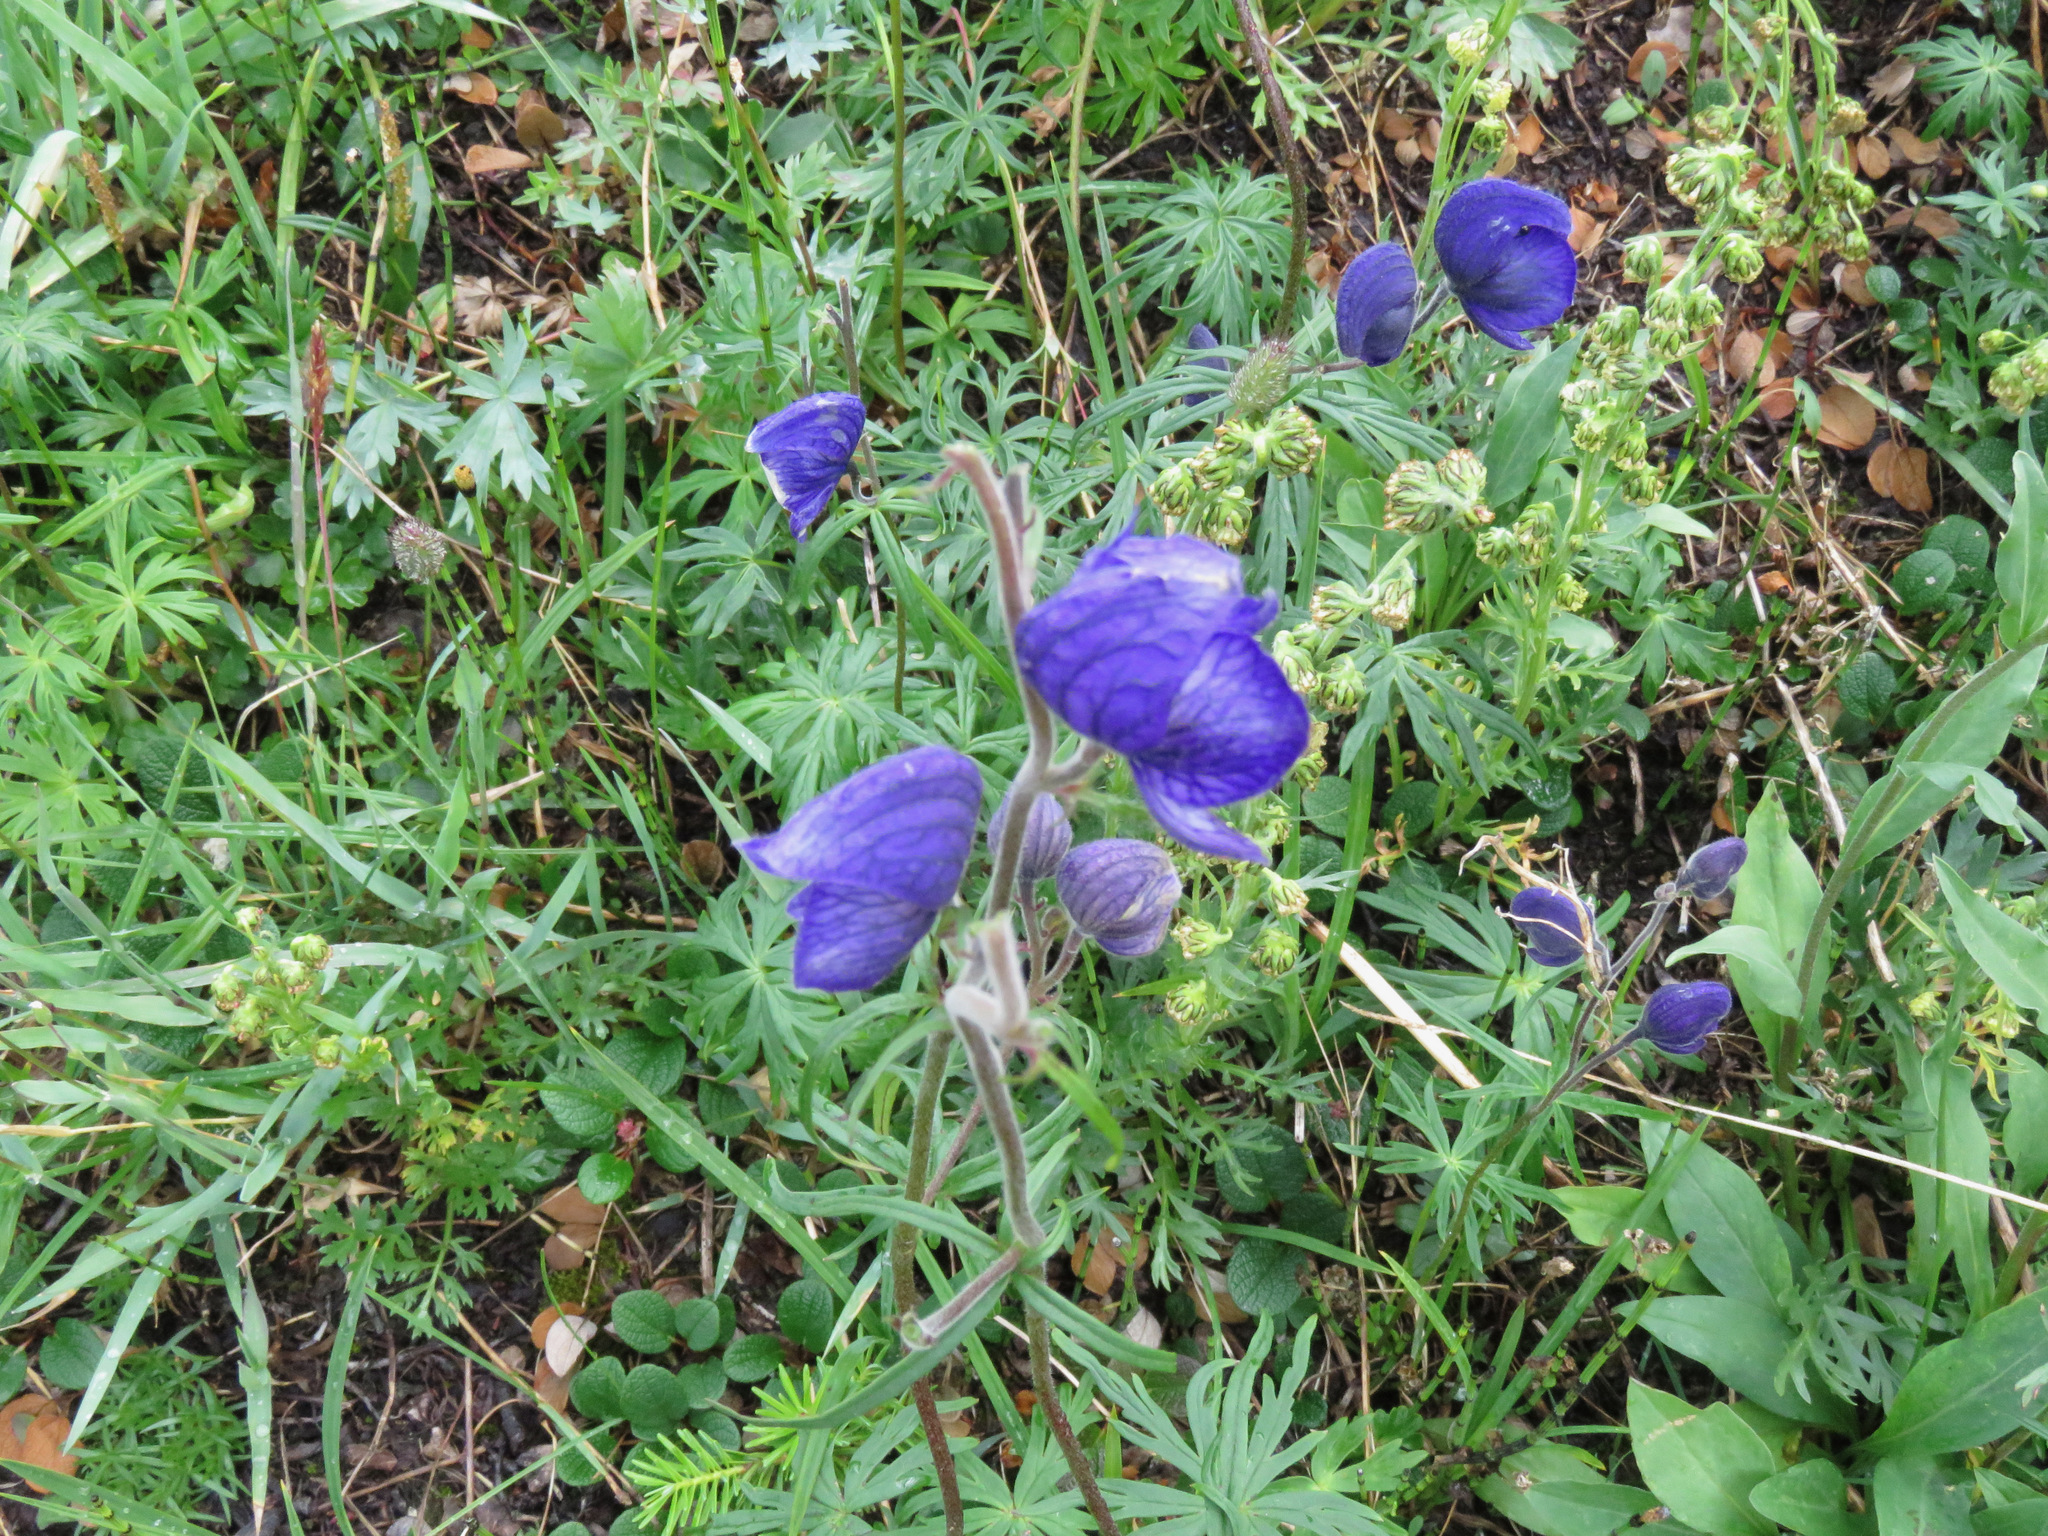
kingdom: Plantae
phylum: Tracheophyta
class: Magnoliopsida
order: Ranunculales
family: Ranunculaceae
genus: Aconitum
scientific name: Aconitum delphiniifolium
